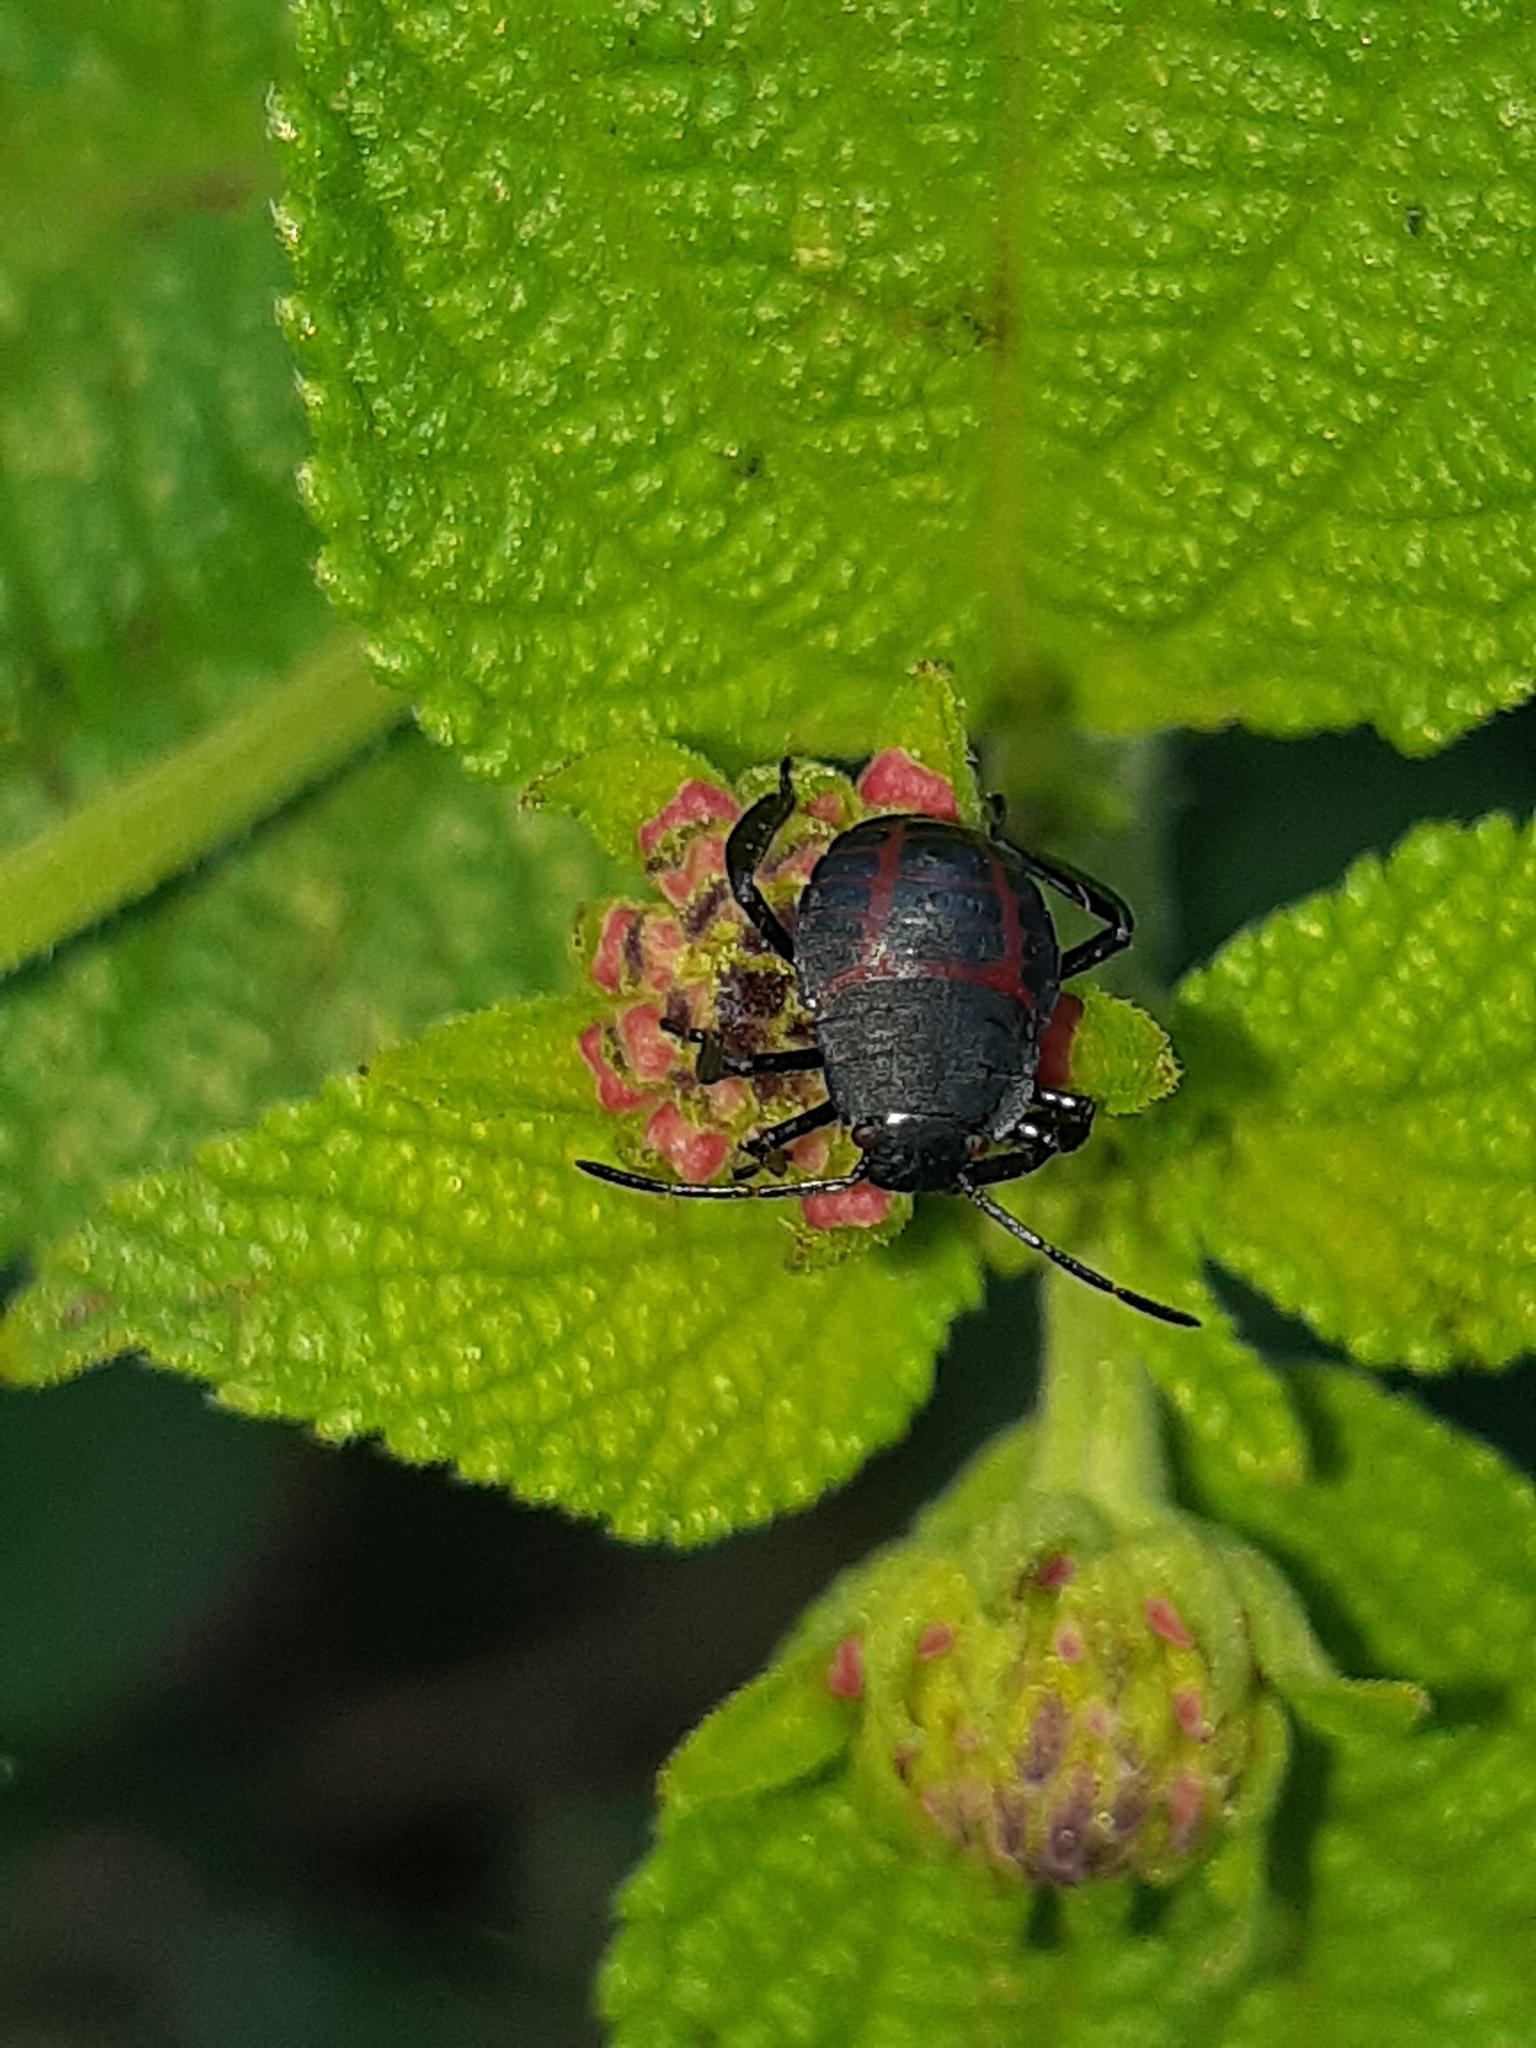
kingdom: Animalia
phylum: Arthropoda
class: Insecta
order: Hemiptera
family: Pentatomidae
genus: Pellaea
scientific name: Pellaea stictica
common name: Stink bug
